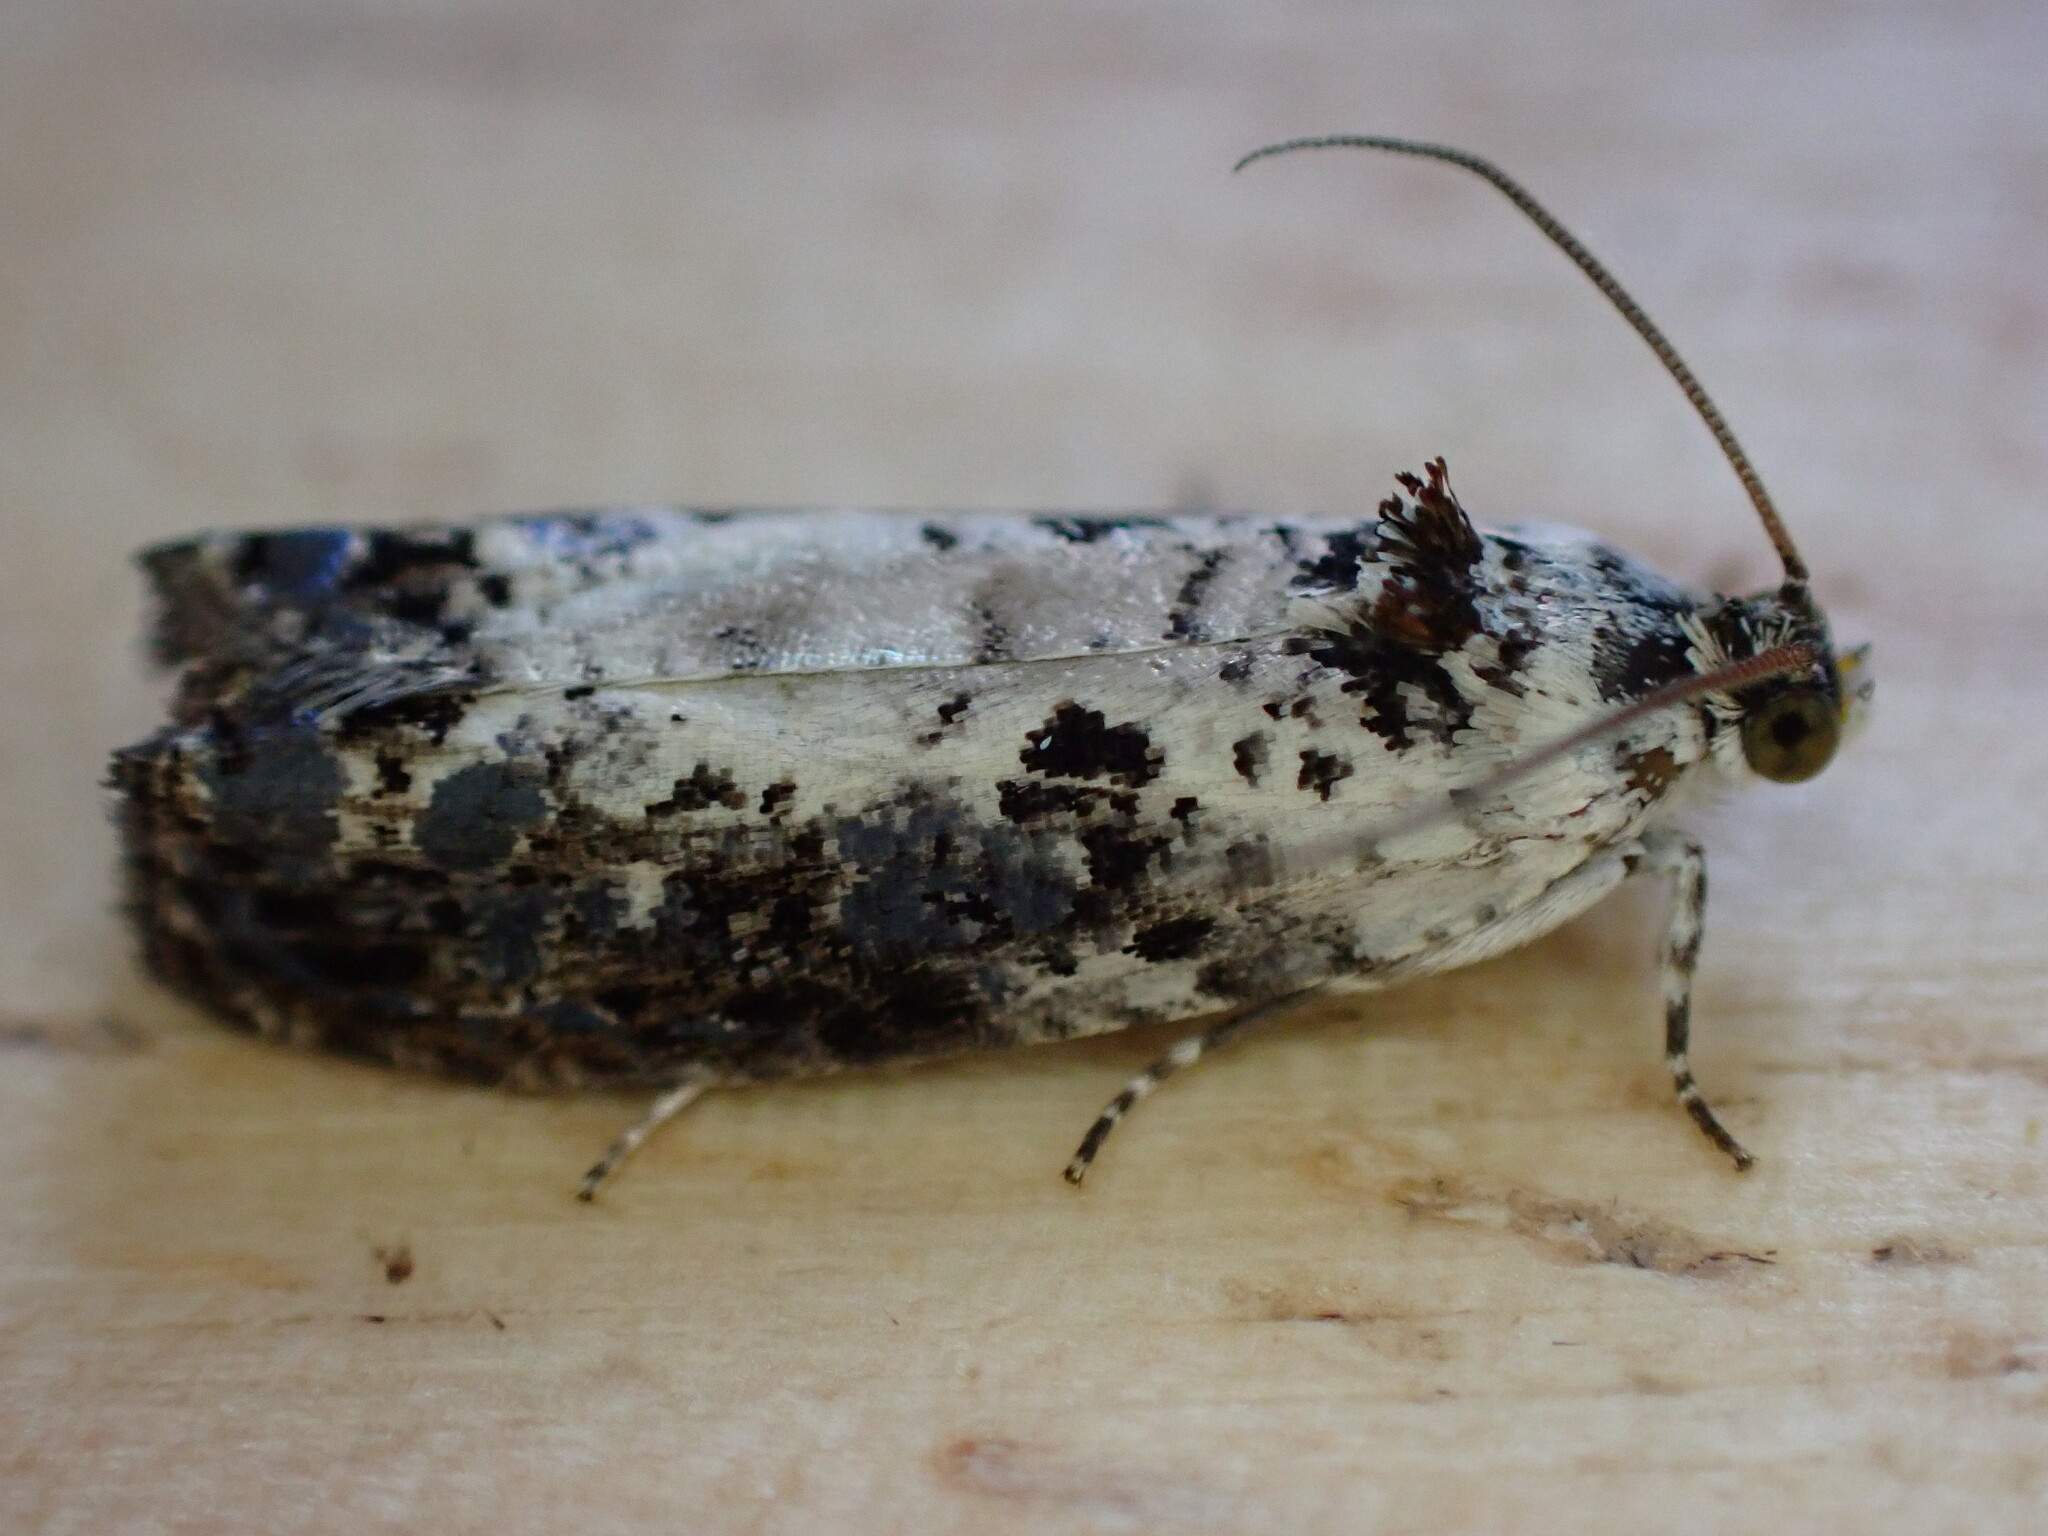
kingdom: Animalia
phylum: Arthropoda
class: Insecta
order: Lepidoptera
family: Tortricidae
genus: Hedya
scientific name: Hedya salicella
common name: Large tortricid moth
